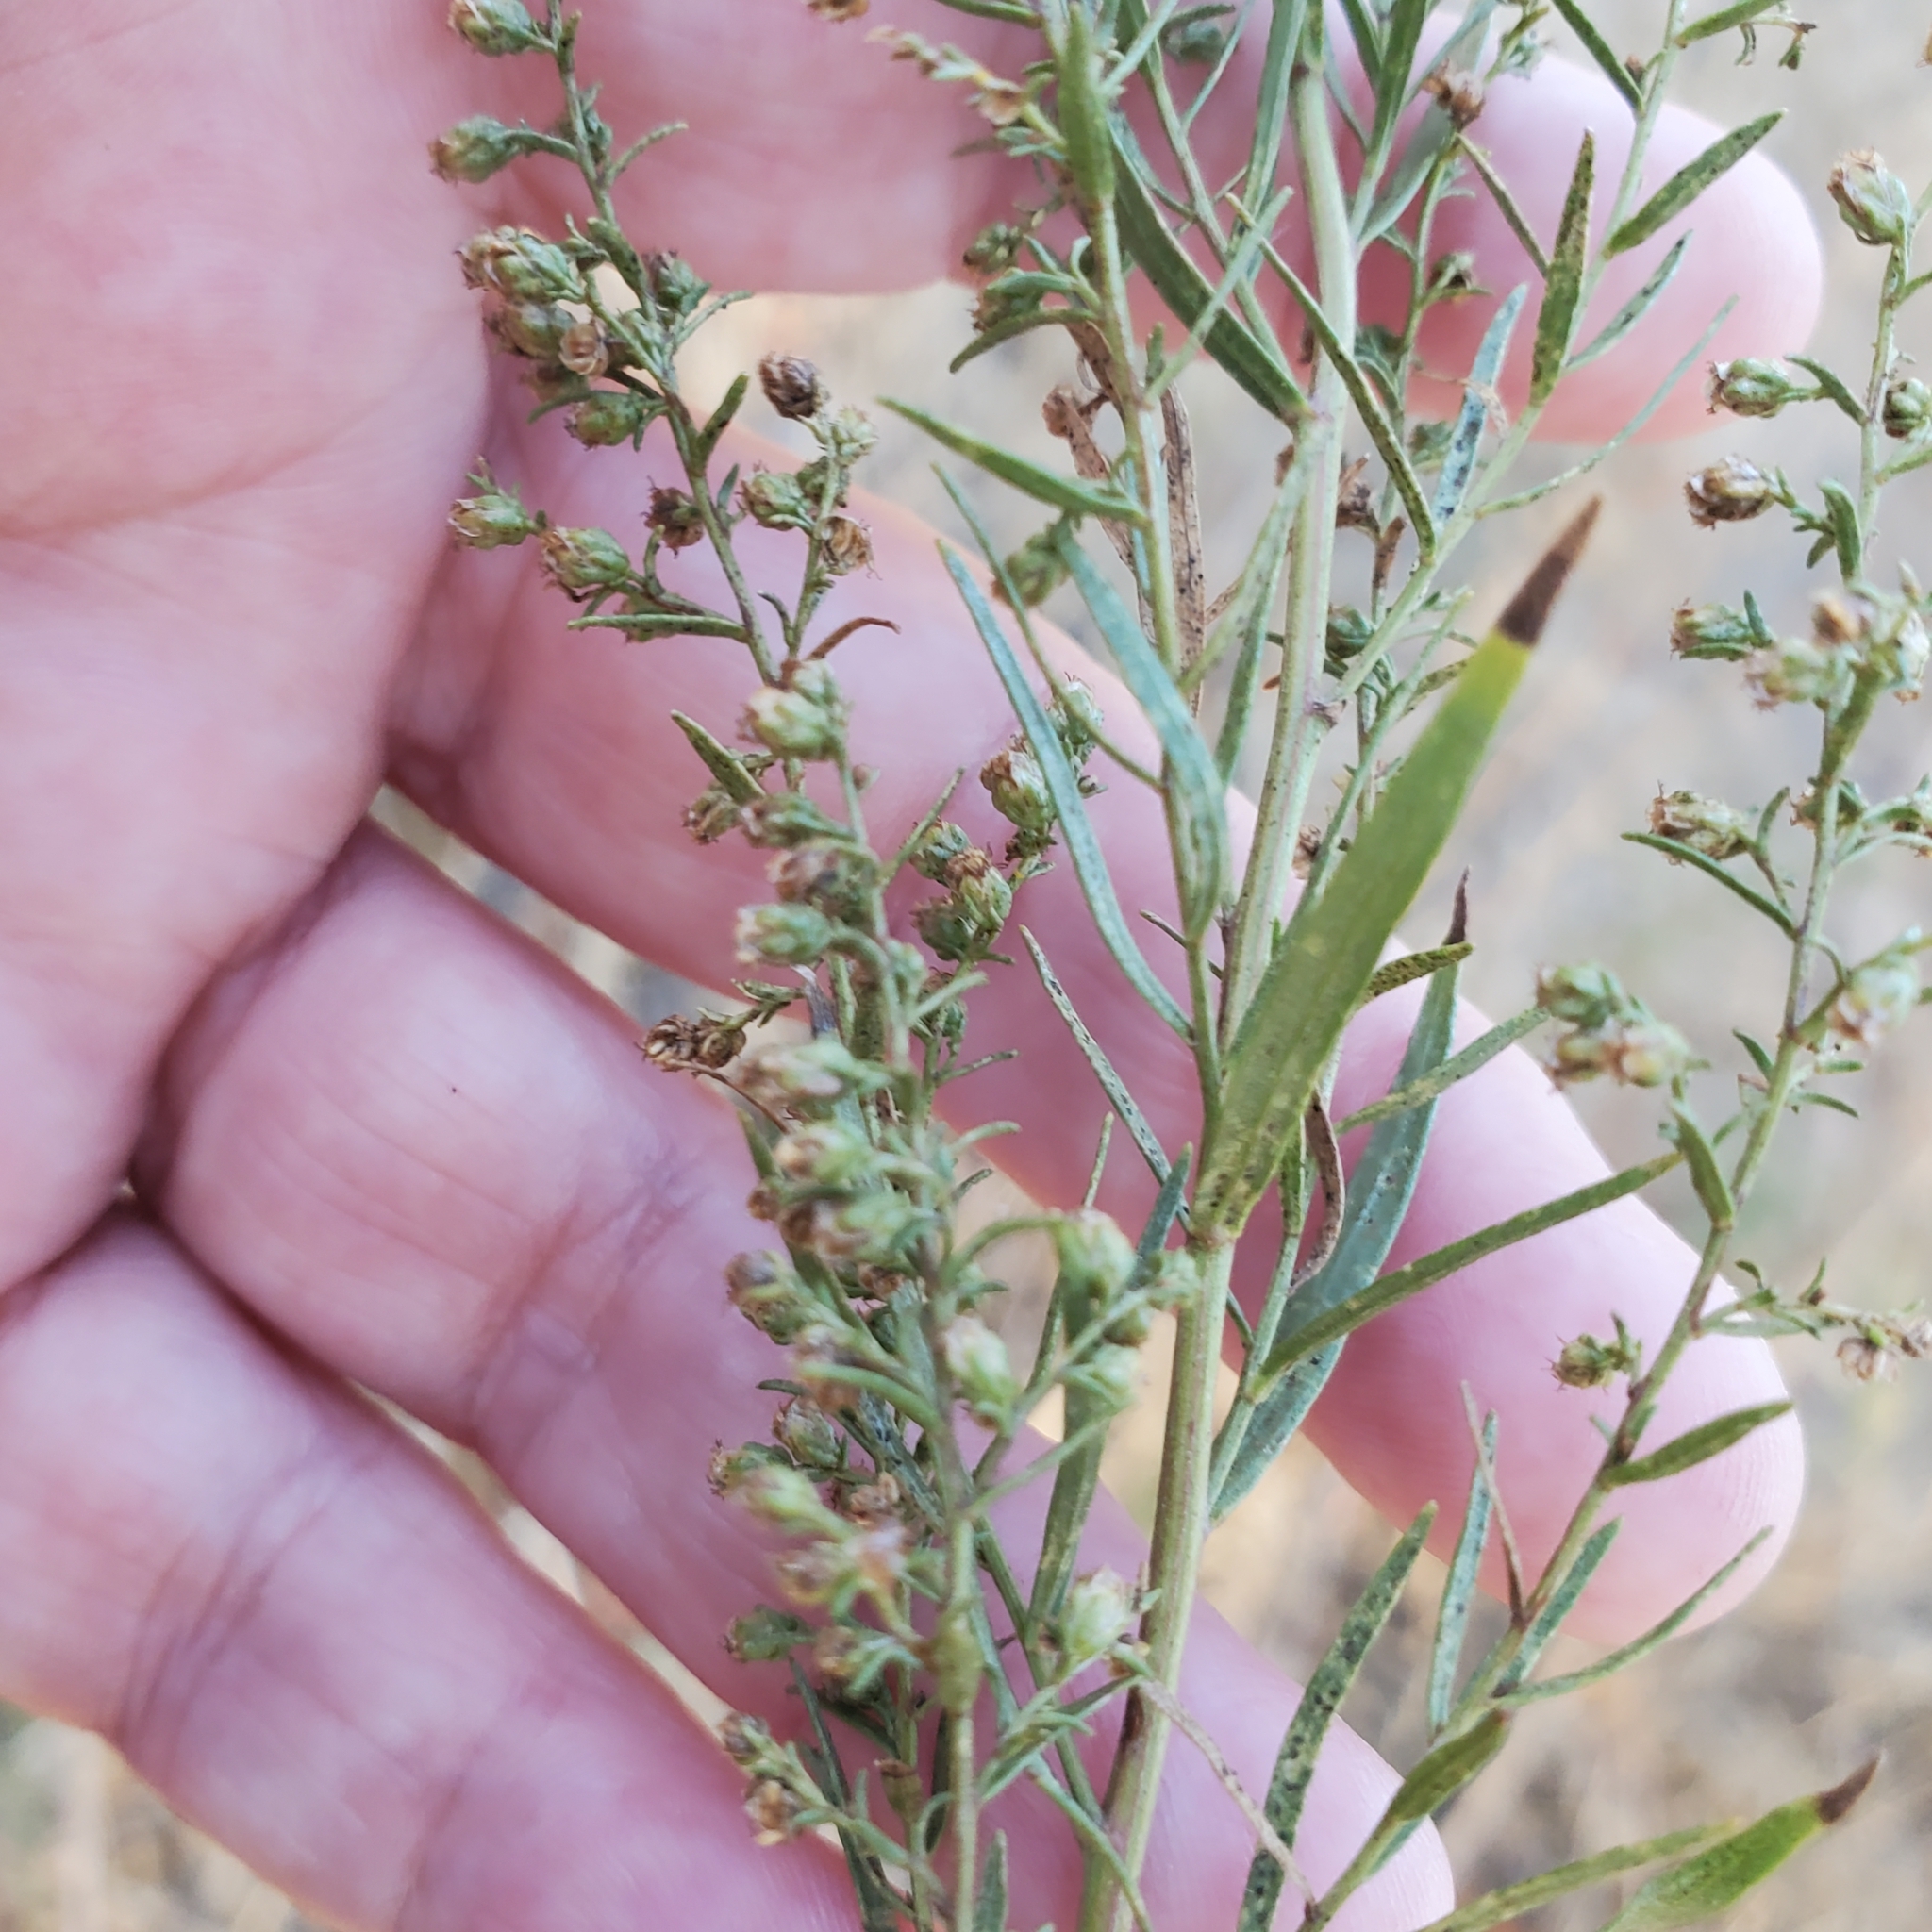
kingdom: Plantae
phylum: Tracheophyta
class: Magnoliopsida
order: Asterales
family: Asteraceae
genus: Artemisia
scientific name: Artemisia dracunculus
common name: Tarragon
